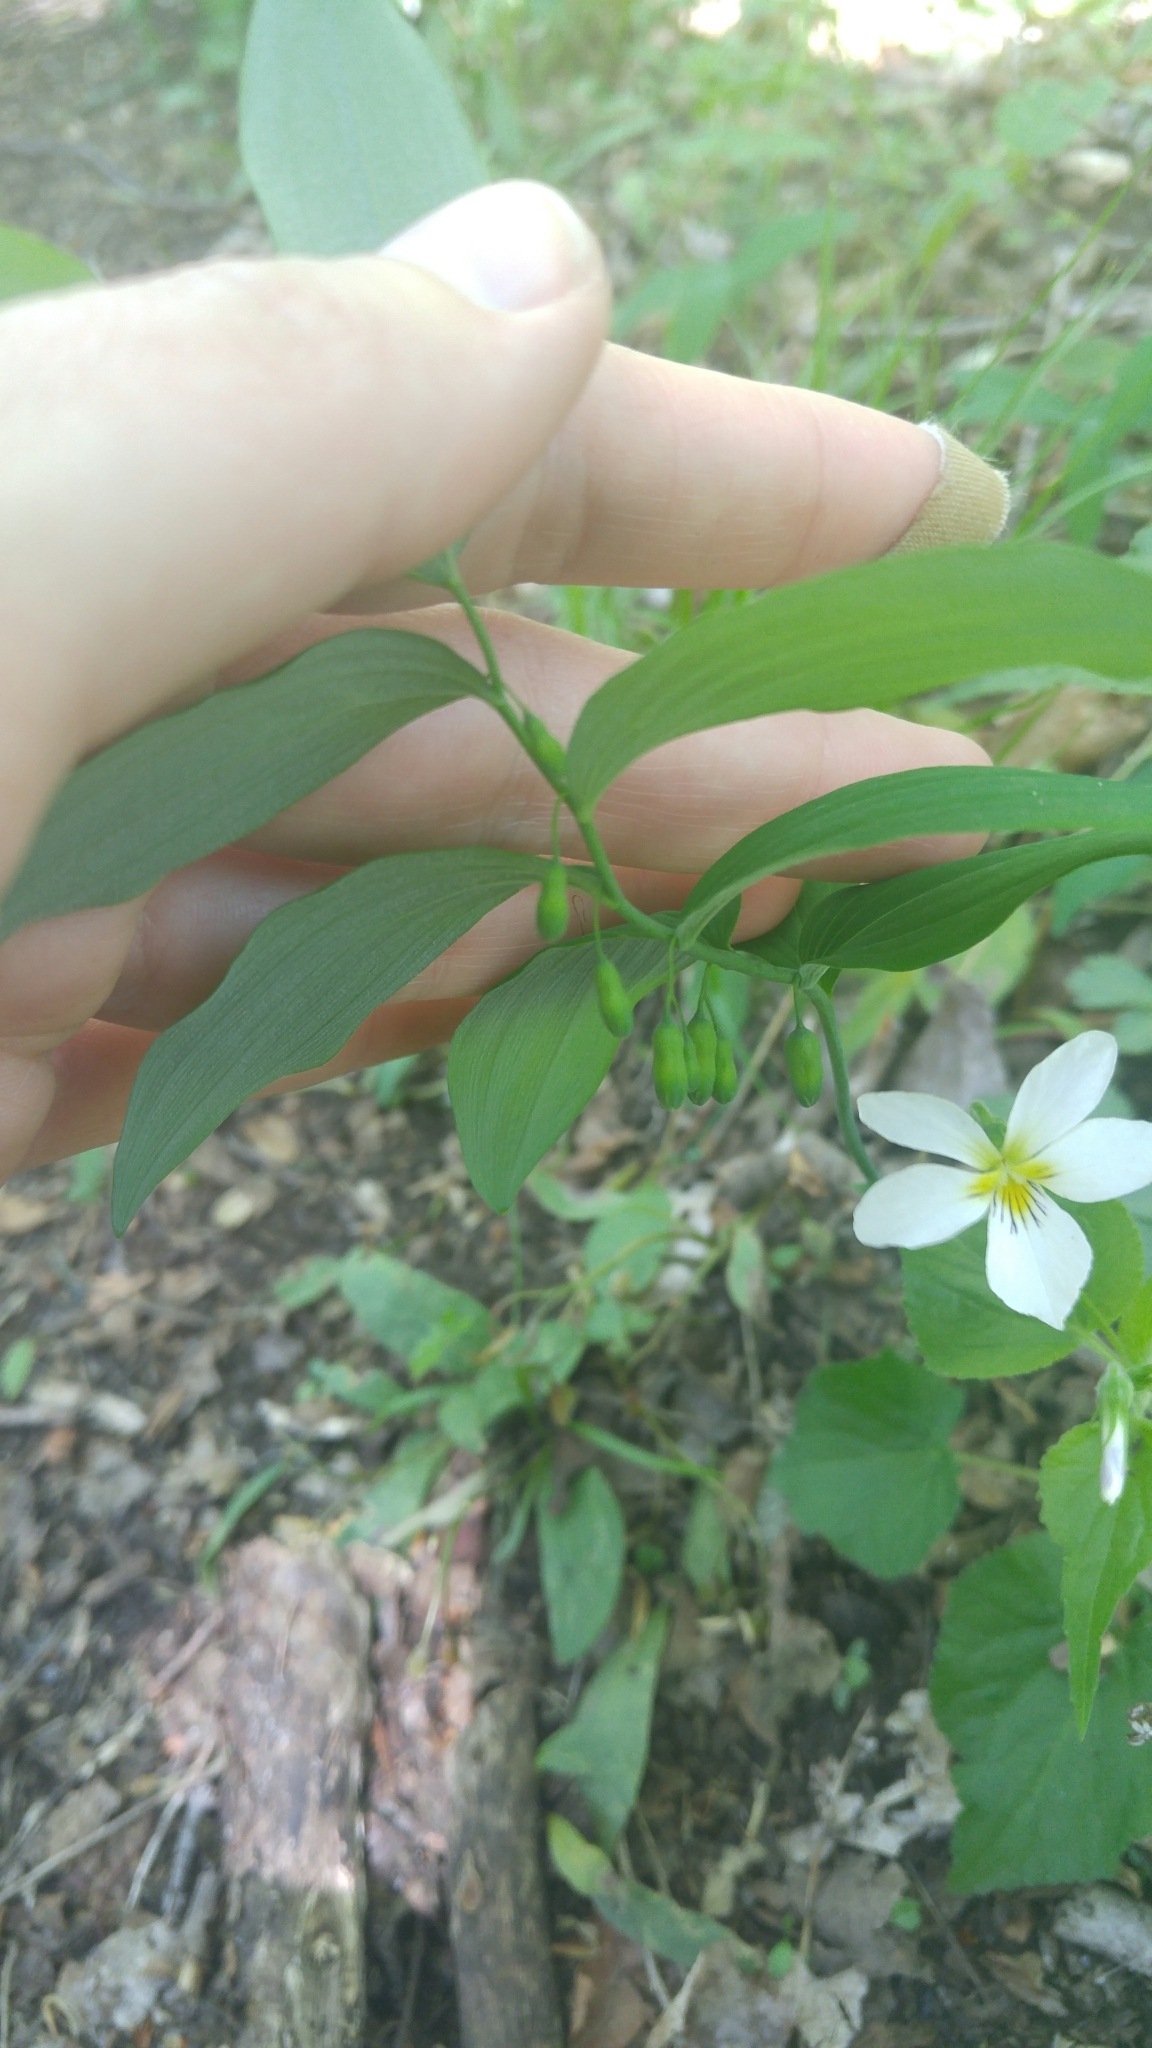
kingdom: Plantae
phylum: Tracheophyta
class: Liliopsida
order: Asparagales
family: Asparagaceae
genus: Polygonatum
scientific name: Polygonatum pubescens
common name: Downy solomon's seal
